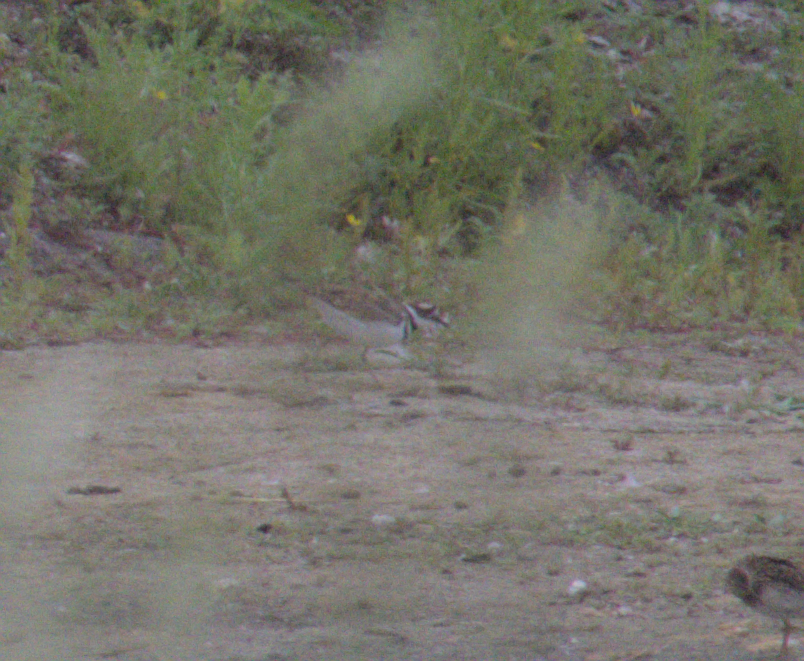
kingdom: Animalia
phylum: Chordata
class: Aves
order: Charadriiformes
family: Charadriidae
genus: Charadrius
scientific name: Charadrius vociferus
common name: Killdeer
